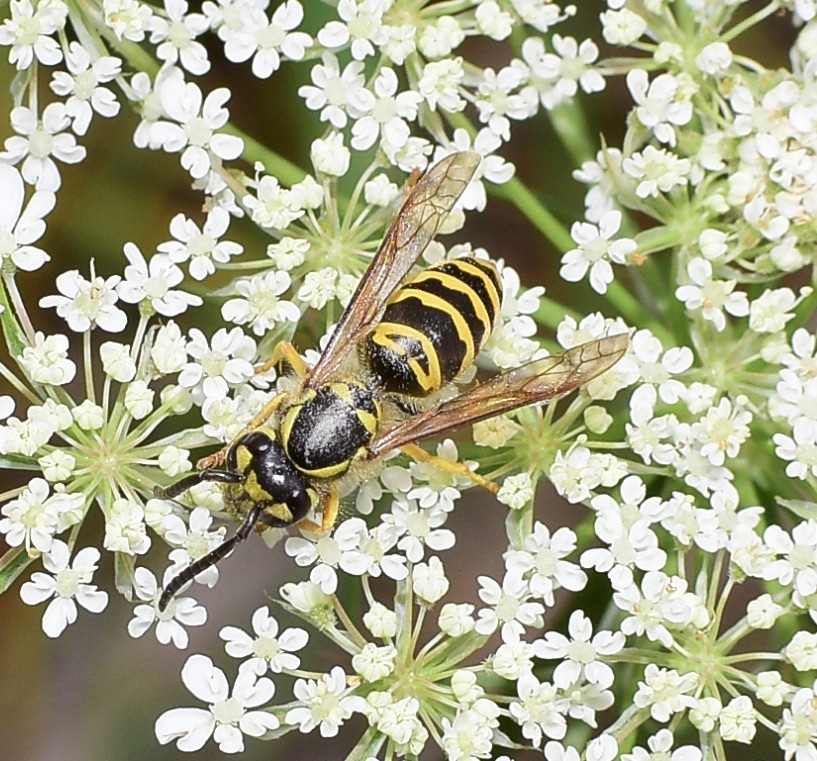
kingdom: Animalia
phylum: Arthropoda
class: Insecta
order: Hymenoptera
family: Vespidae
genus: Vespula
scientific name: Vespula maculifrons
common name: Eastern yellowjacket
